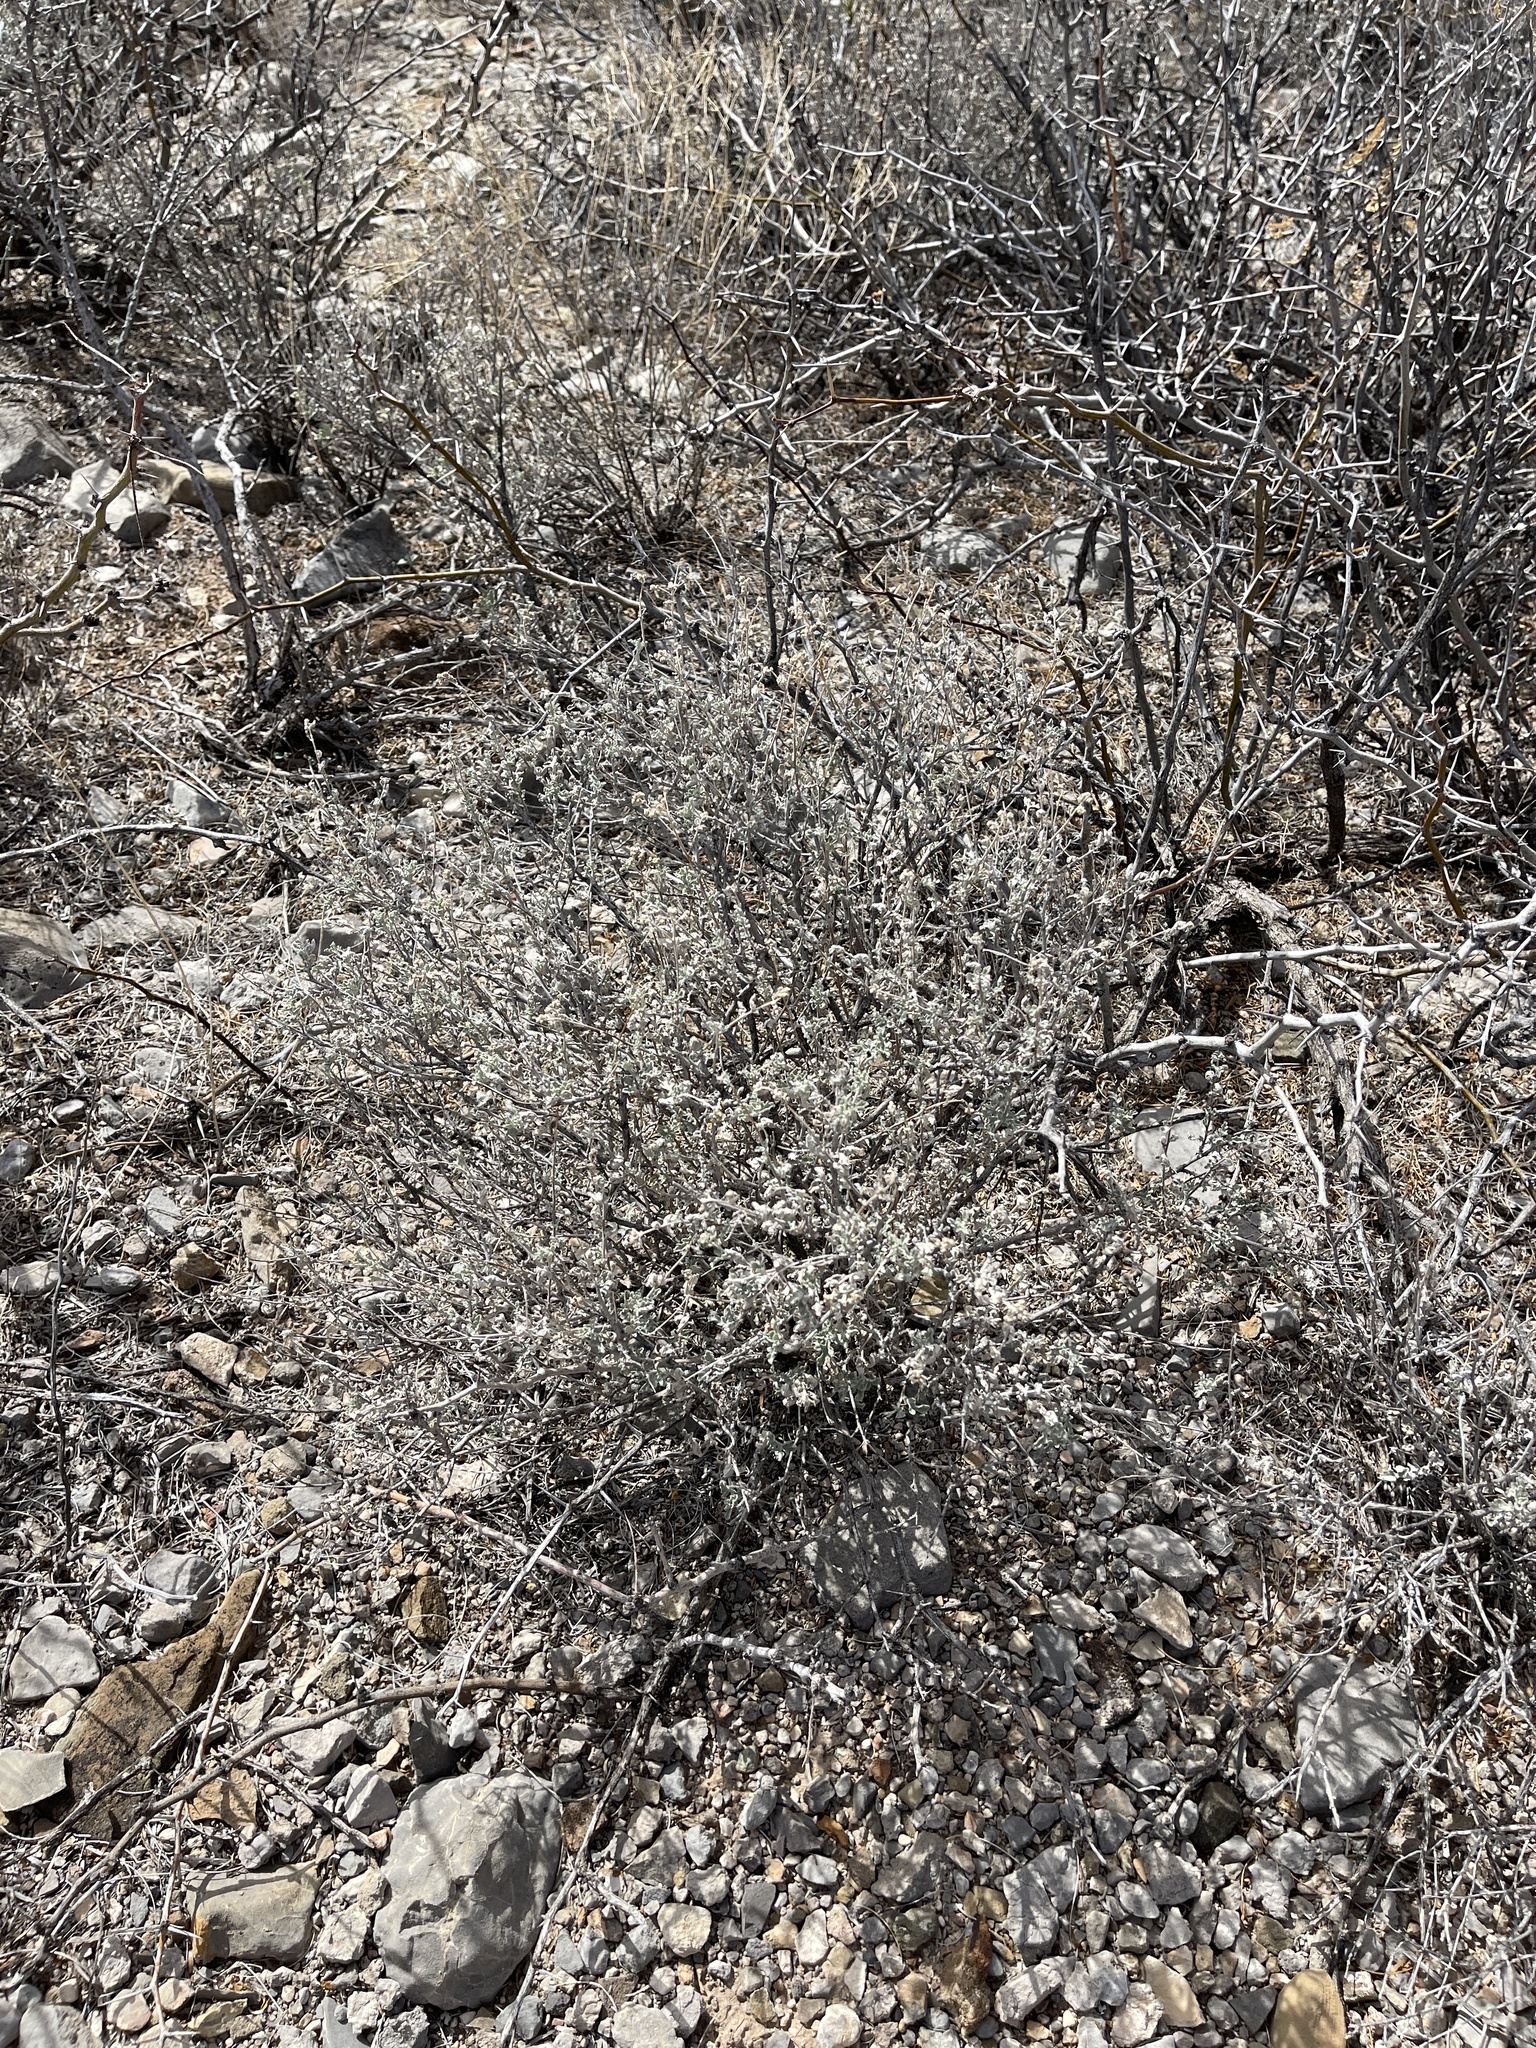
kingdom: Plantae
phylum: Tracheophyta
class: Magnoliopsida
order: Asterales
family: Asteraceae
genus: Parthenium
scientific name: Parthenium incanum
